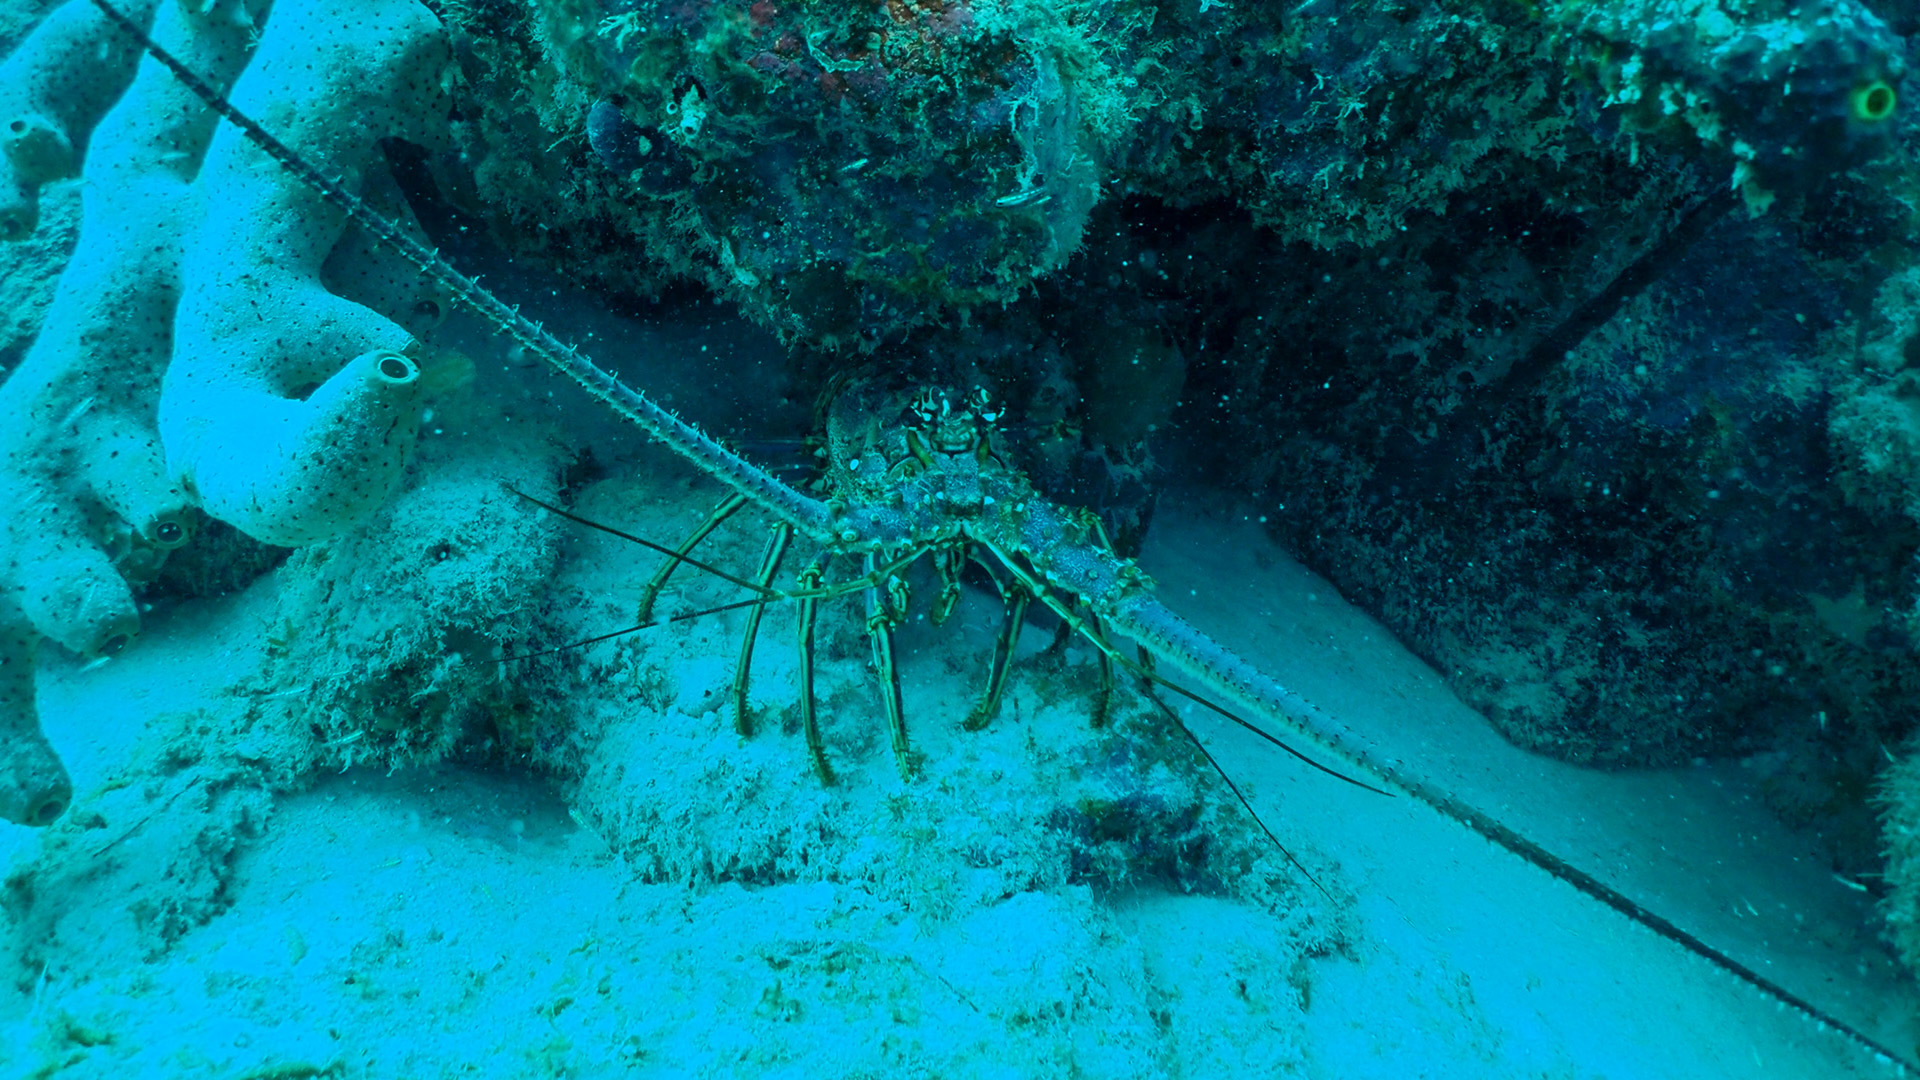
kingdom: Animalia
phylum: Arthropoda
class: Malacostraca
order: Decapoda
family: Palinuridae
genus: Panulirus
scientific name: Panulirus argus
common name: Caribbean spiny lobster
